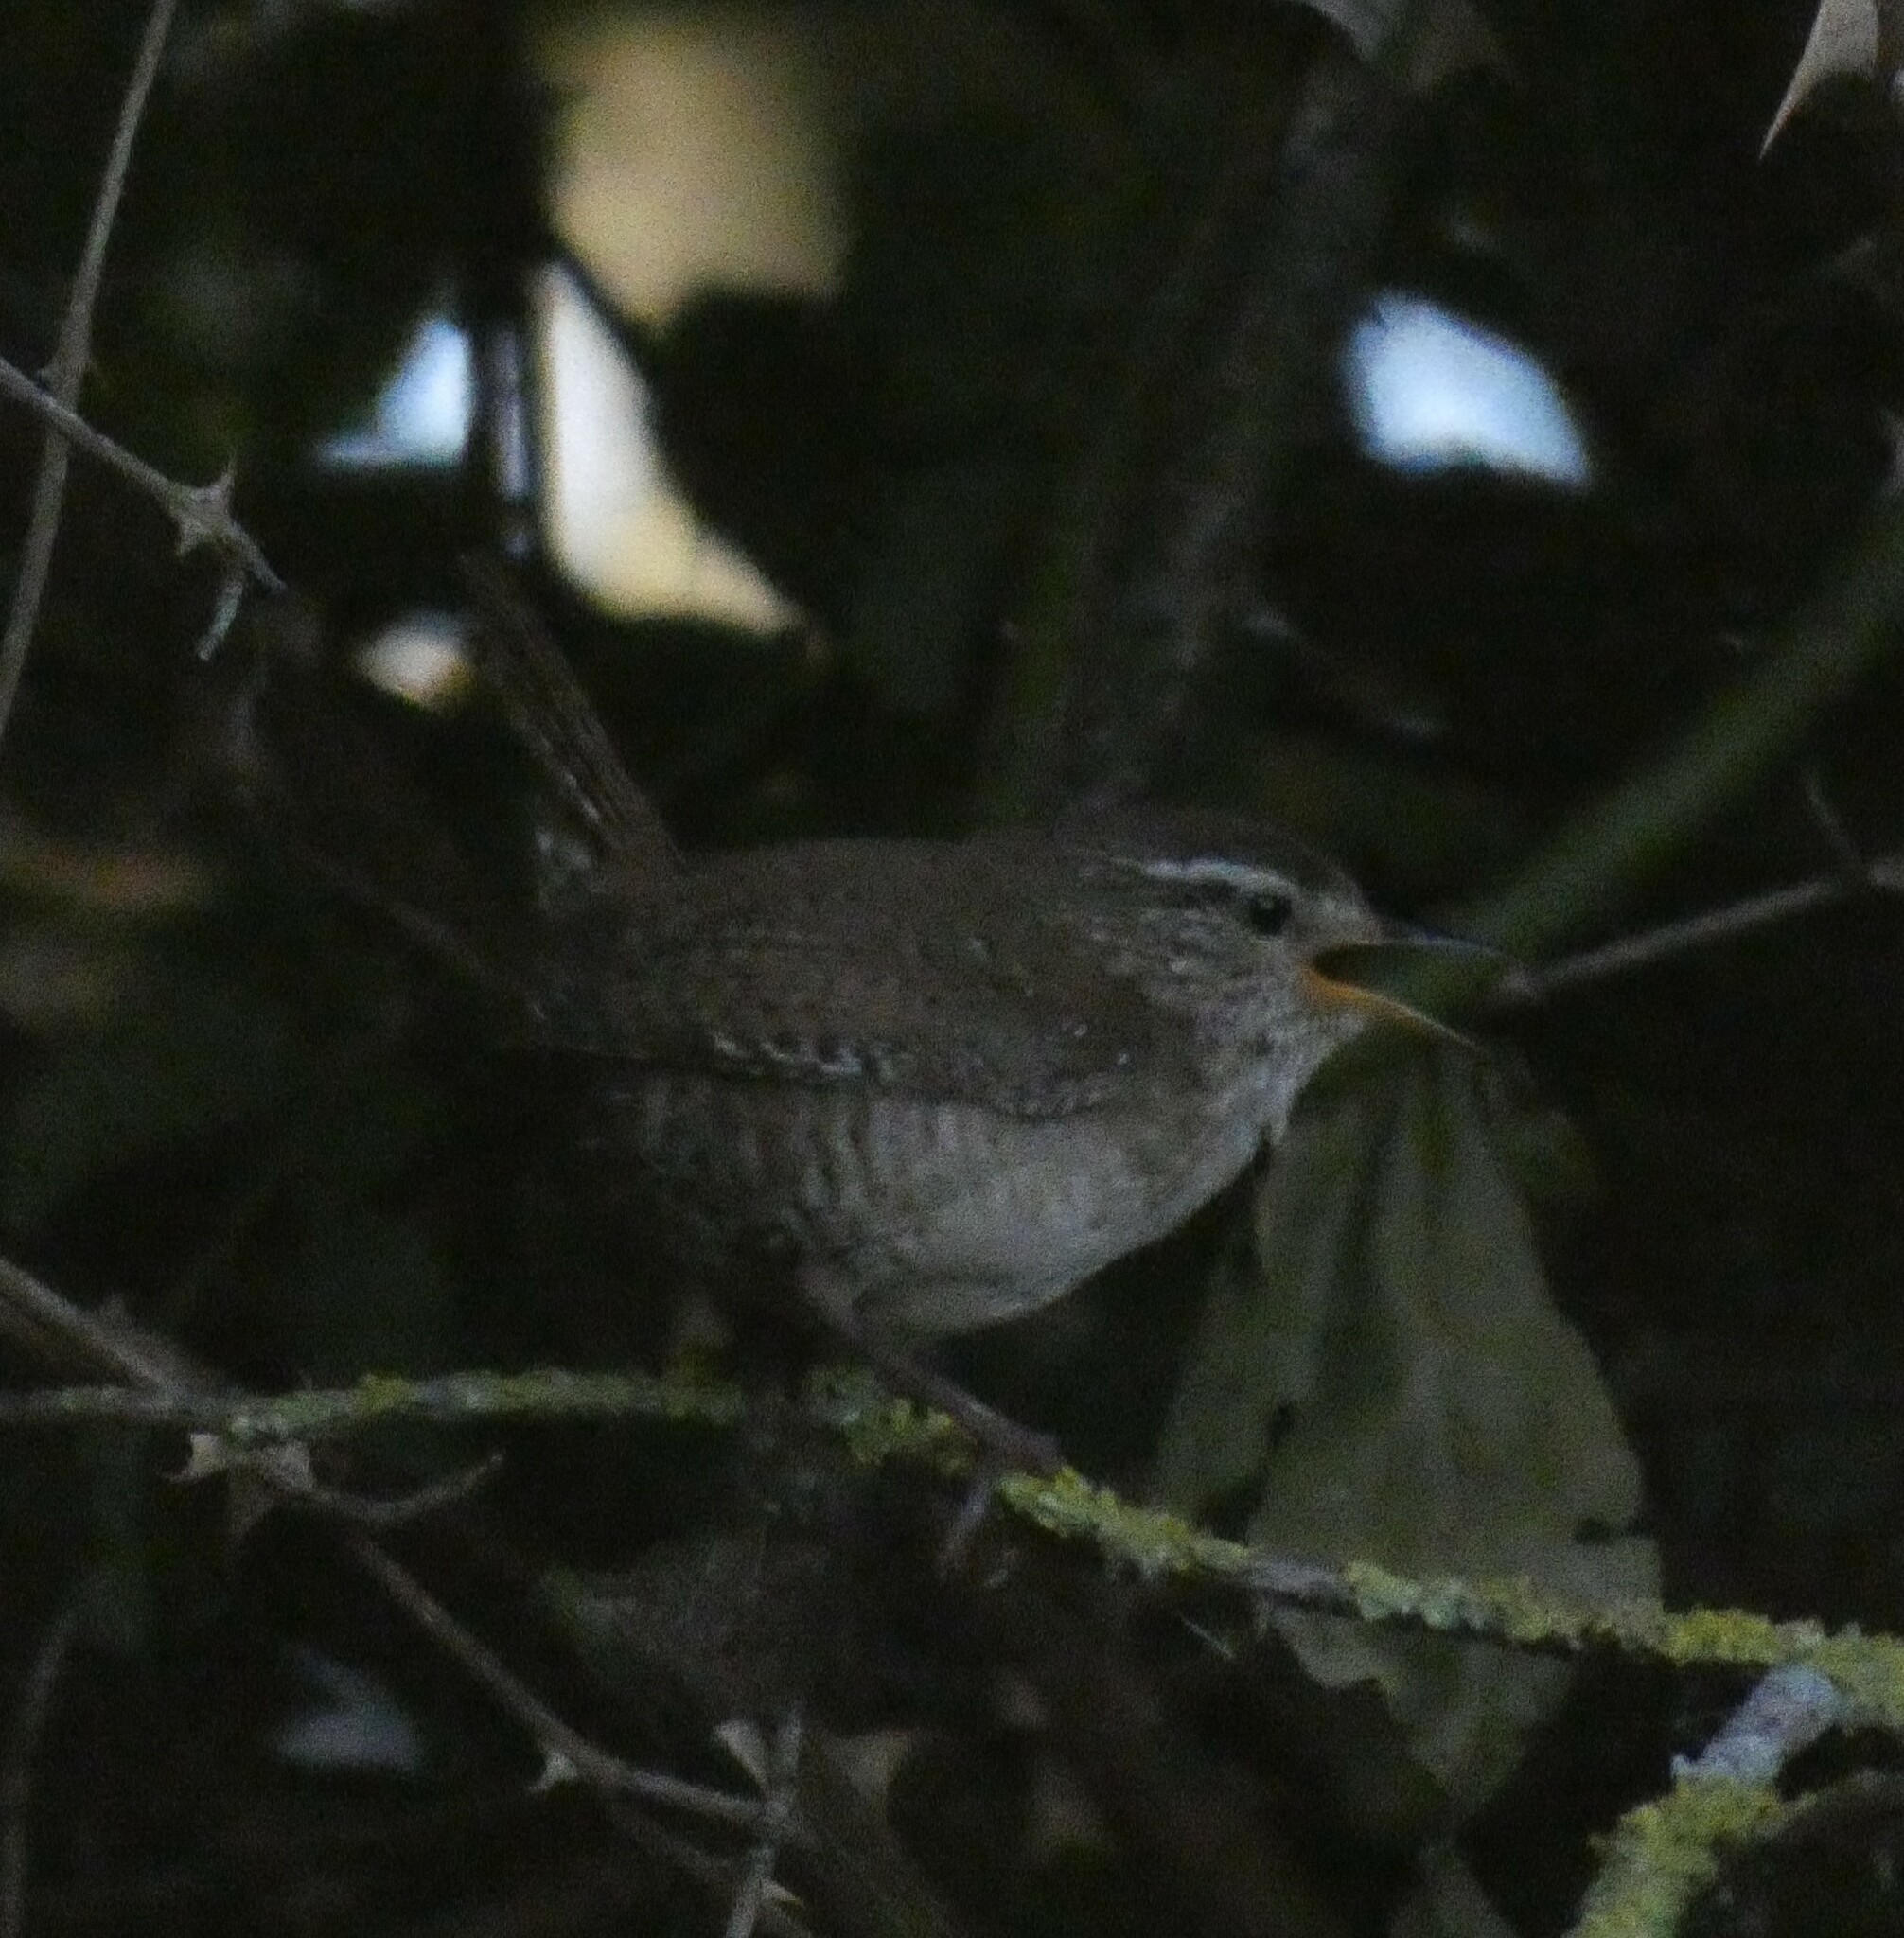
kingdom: Animalia
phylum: Chordata
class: Aves
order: Passeriformes
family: Troglodytidae
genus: Troglodytes
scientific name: Troglodytes troglodytes
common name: Eurasian wren
